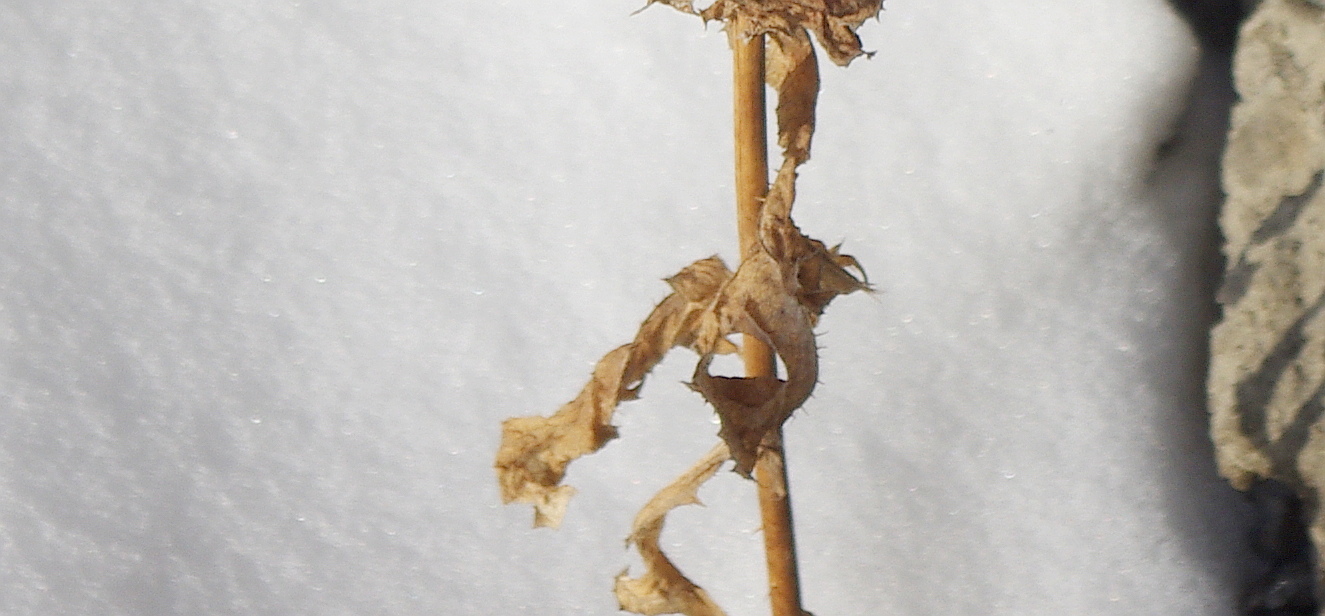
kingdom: Plantae
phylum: Tracheophyta
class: Magnoliopsida
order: Asterales
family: Asteraceae
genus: Lactuca
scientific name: Lactuca serriola
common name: Prickly lettuce
